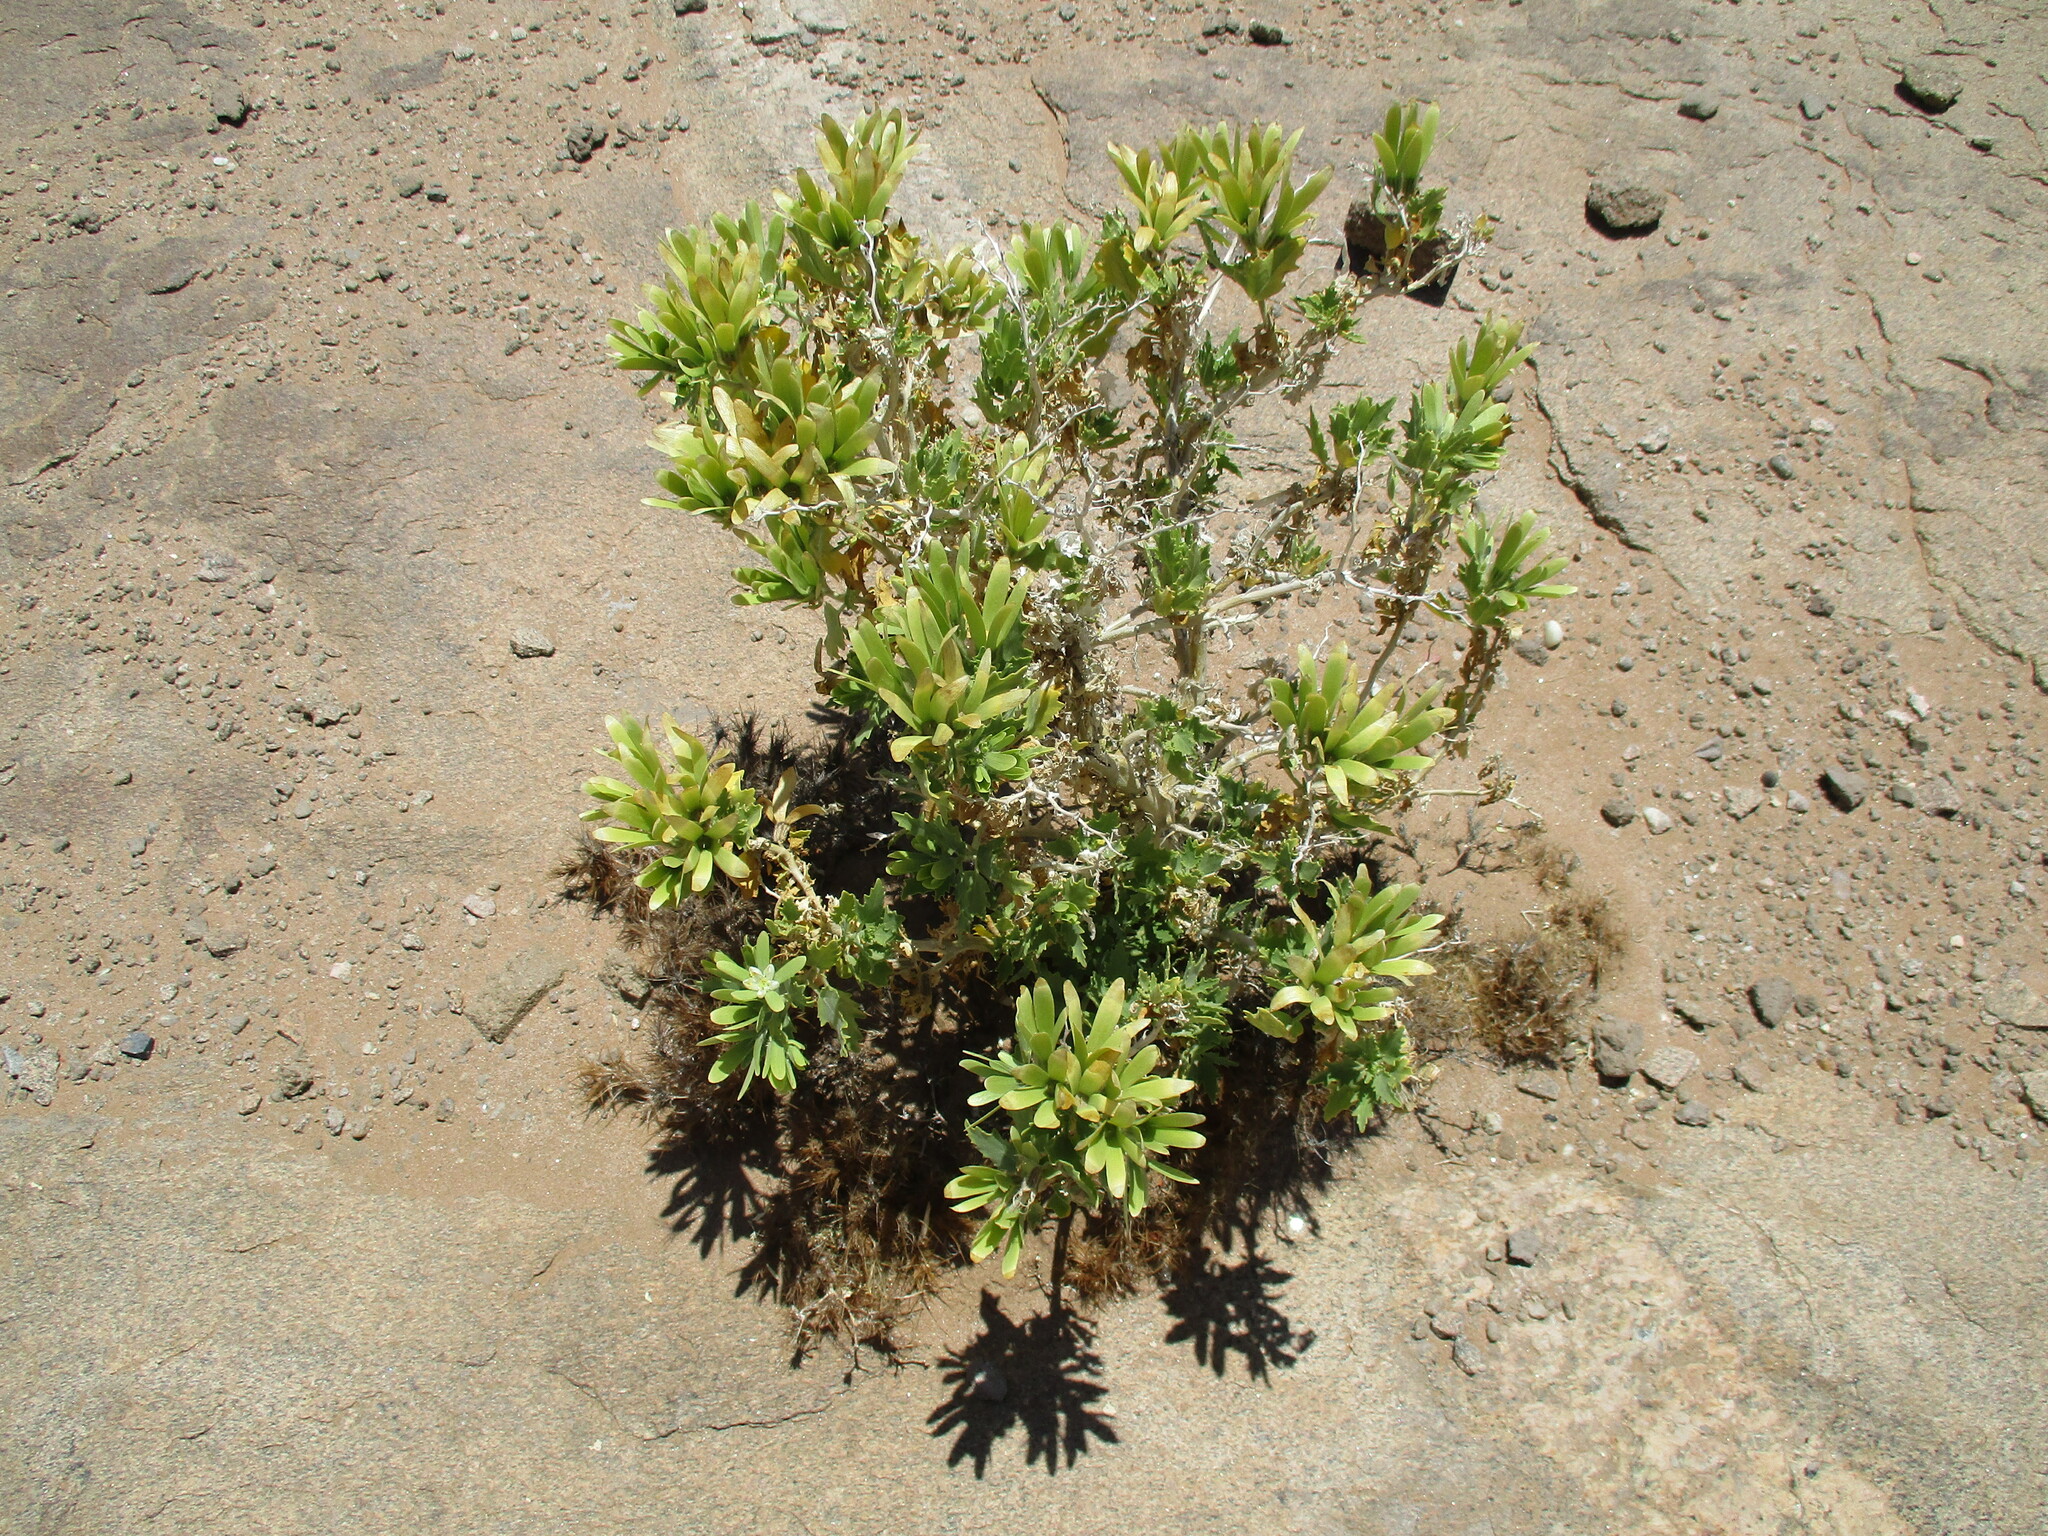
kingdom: Plantae
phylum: Tracheophyta
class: Magnoliopsida
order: Cornales
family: Loasaceae
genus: Kissenia
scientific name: Kissenia capensis
